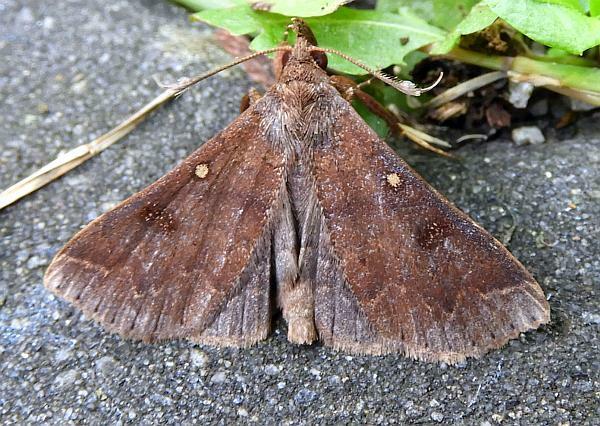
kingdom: Animalia
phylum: Arthropoda
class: Insecta
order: Lepidoptera
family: Erebidae
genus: Renia
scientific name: Renia discoloralis
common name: Discolored renia moth
